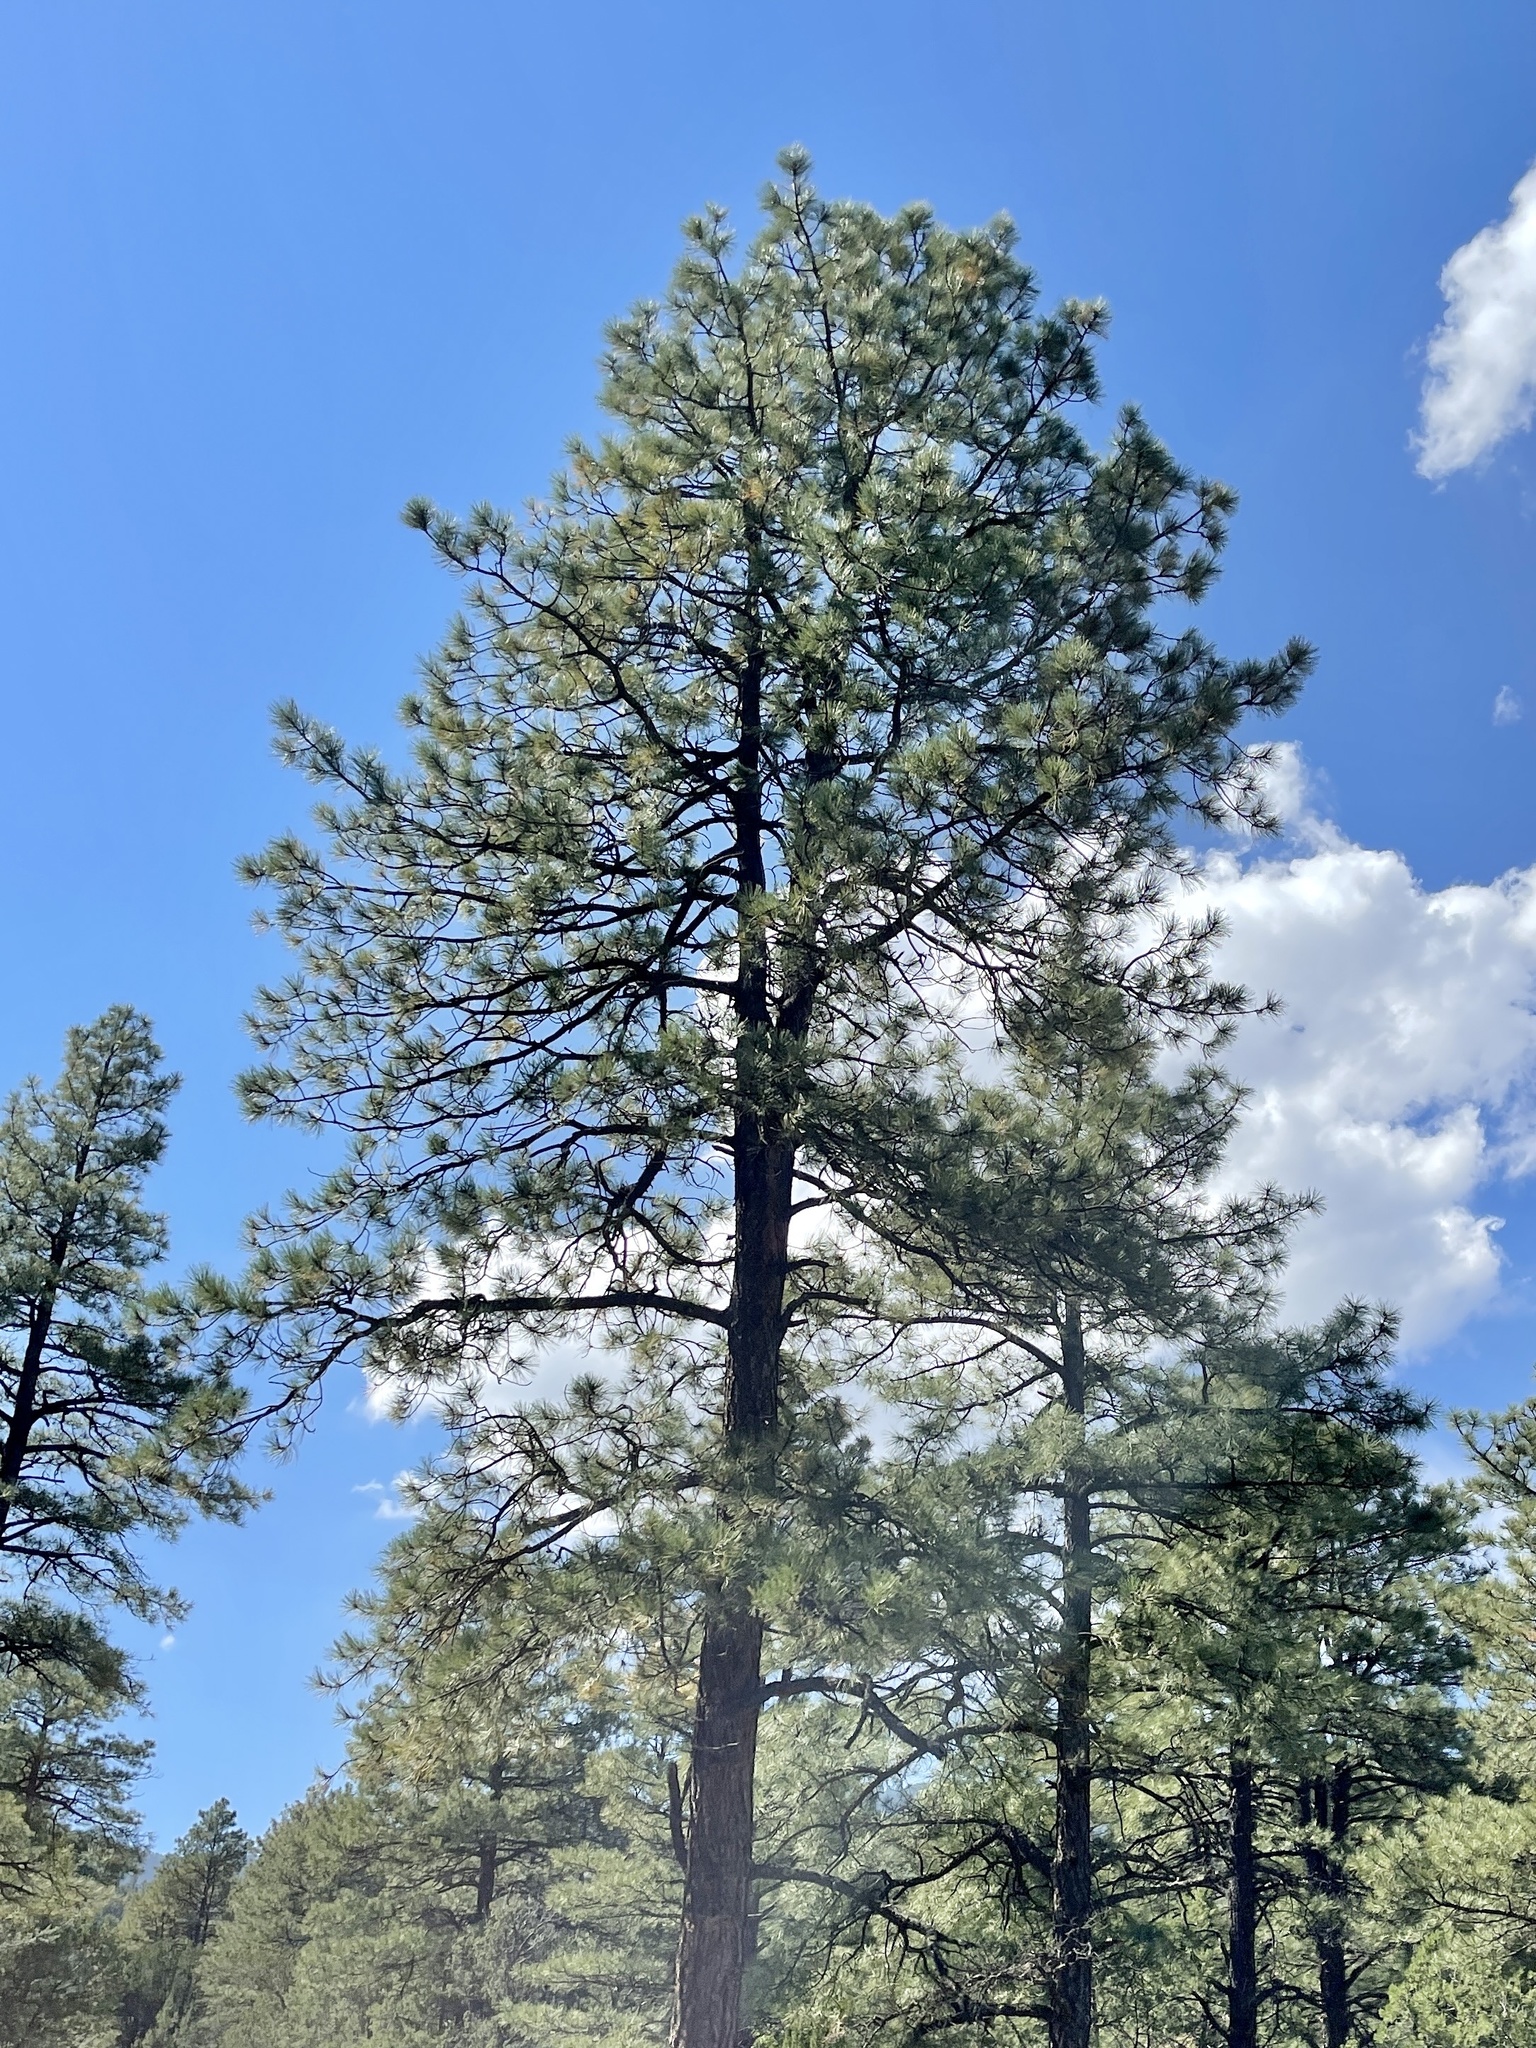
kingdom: Plantae
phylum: Tracheophyta
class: Pinopsida
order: Pinales
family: Pinaceae
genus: Pinus
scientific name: Pinus ponderosa
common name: Western yellow-pine
